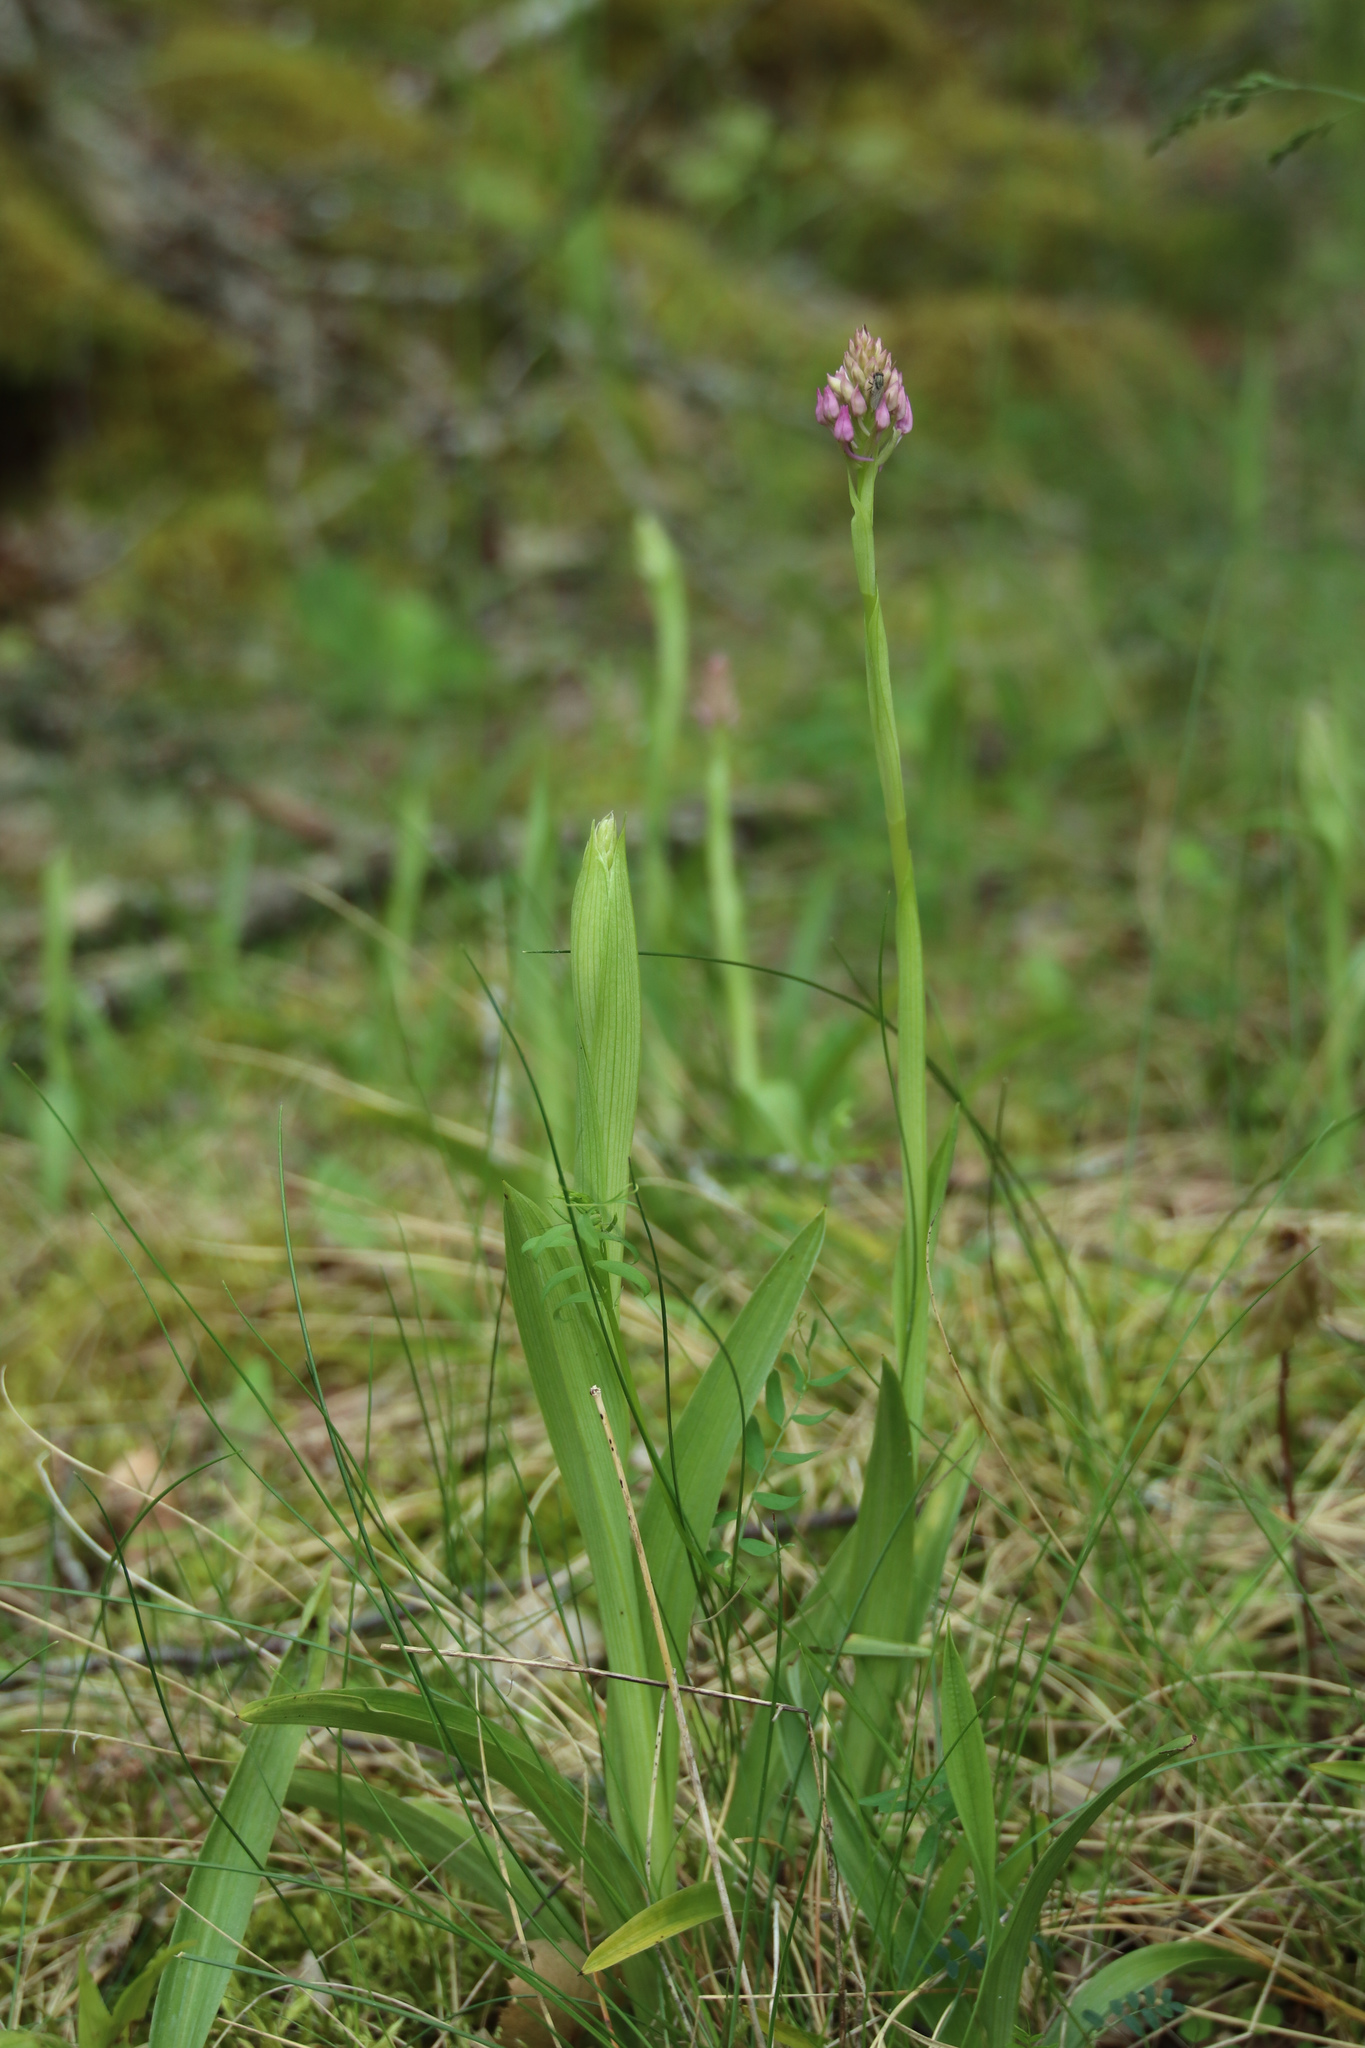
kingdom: Plantae
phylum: Tracheophyta
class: Liliopsida
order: Asparagales
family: Orchidaceae
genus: Anacamptis
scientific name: Anacamptis pyramidalis
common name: Pyramidal orchid
